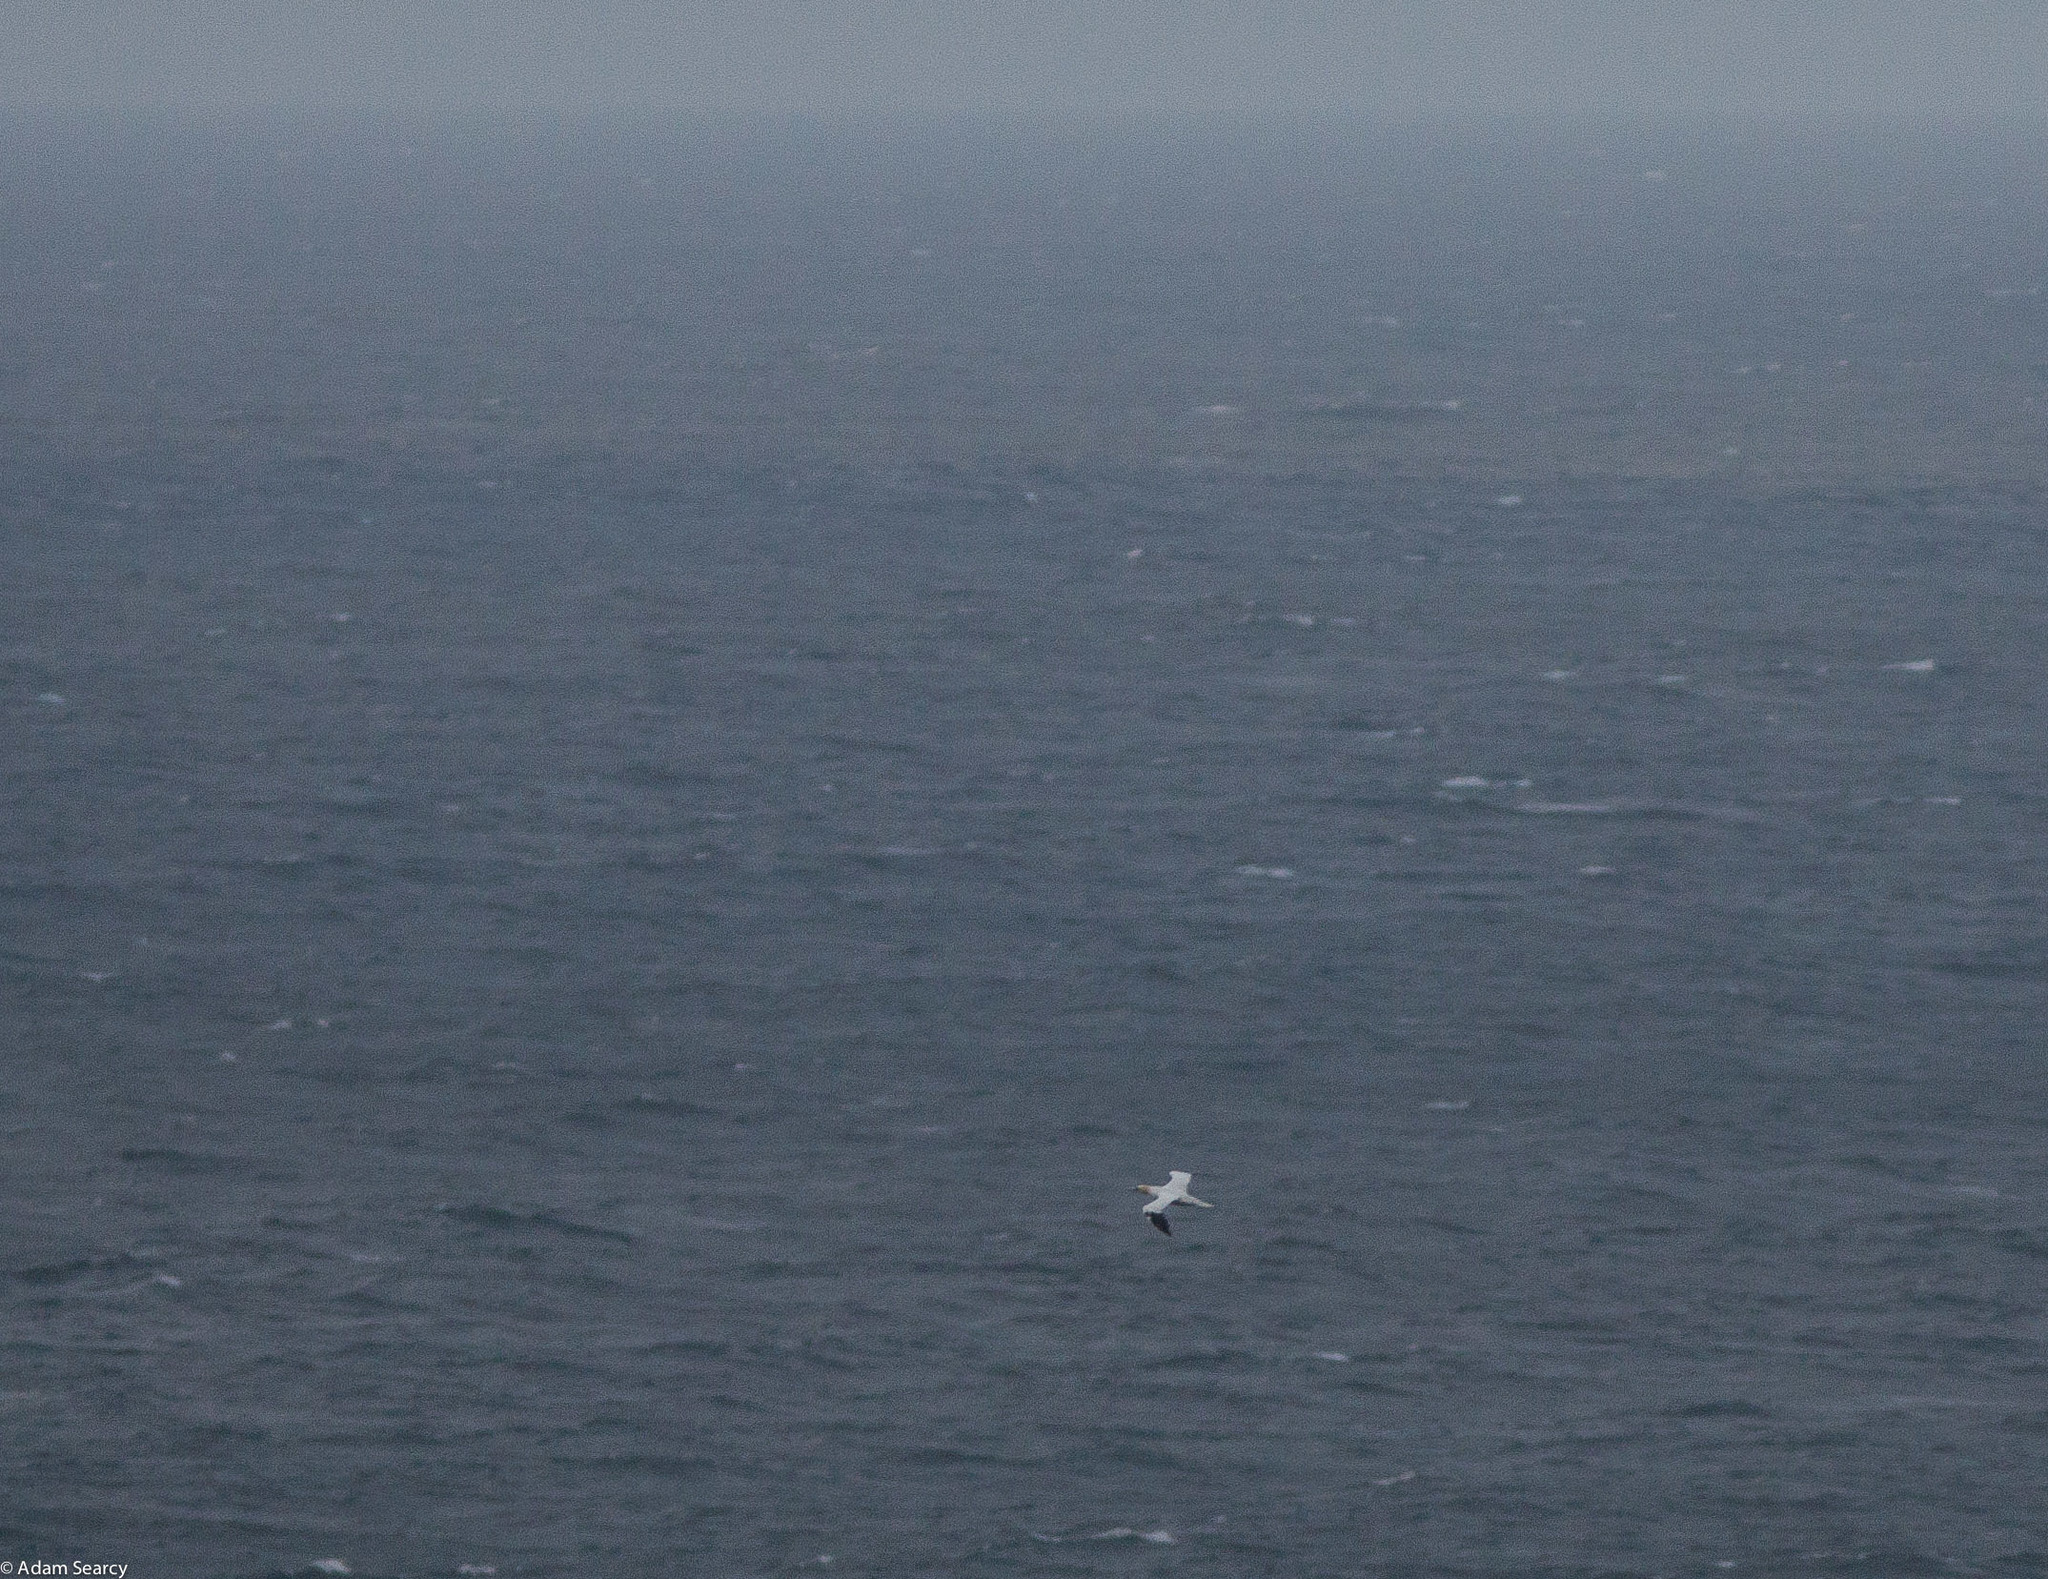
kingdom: Animalia
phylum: Chordata
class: Aves
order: Suliformes
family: Sulidae
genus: Morus
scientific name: Morus bassanus
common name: Northern gannet
